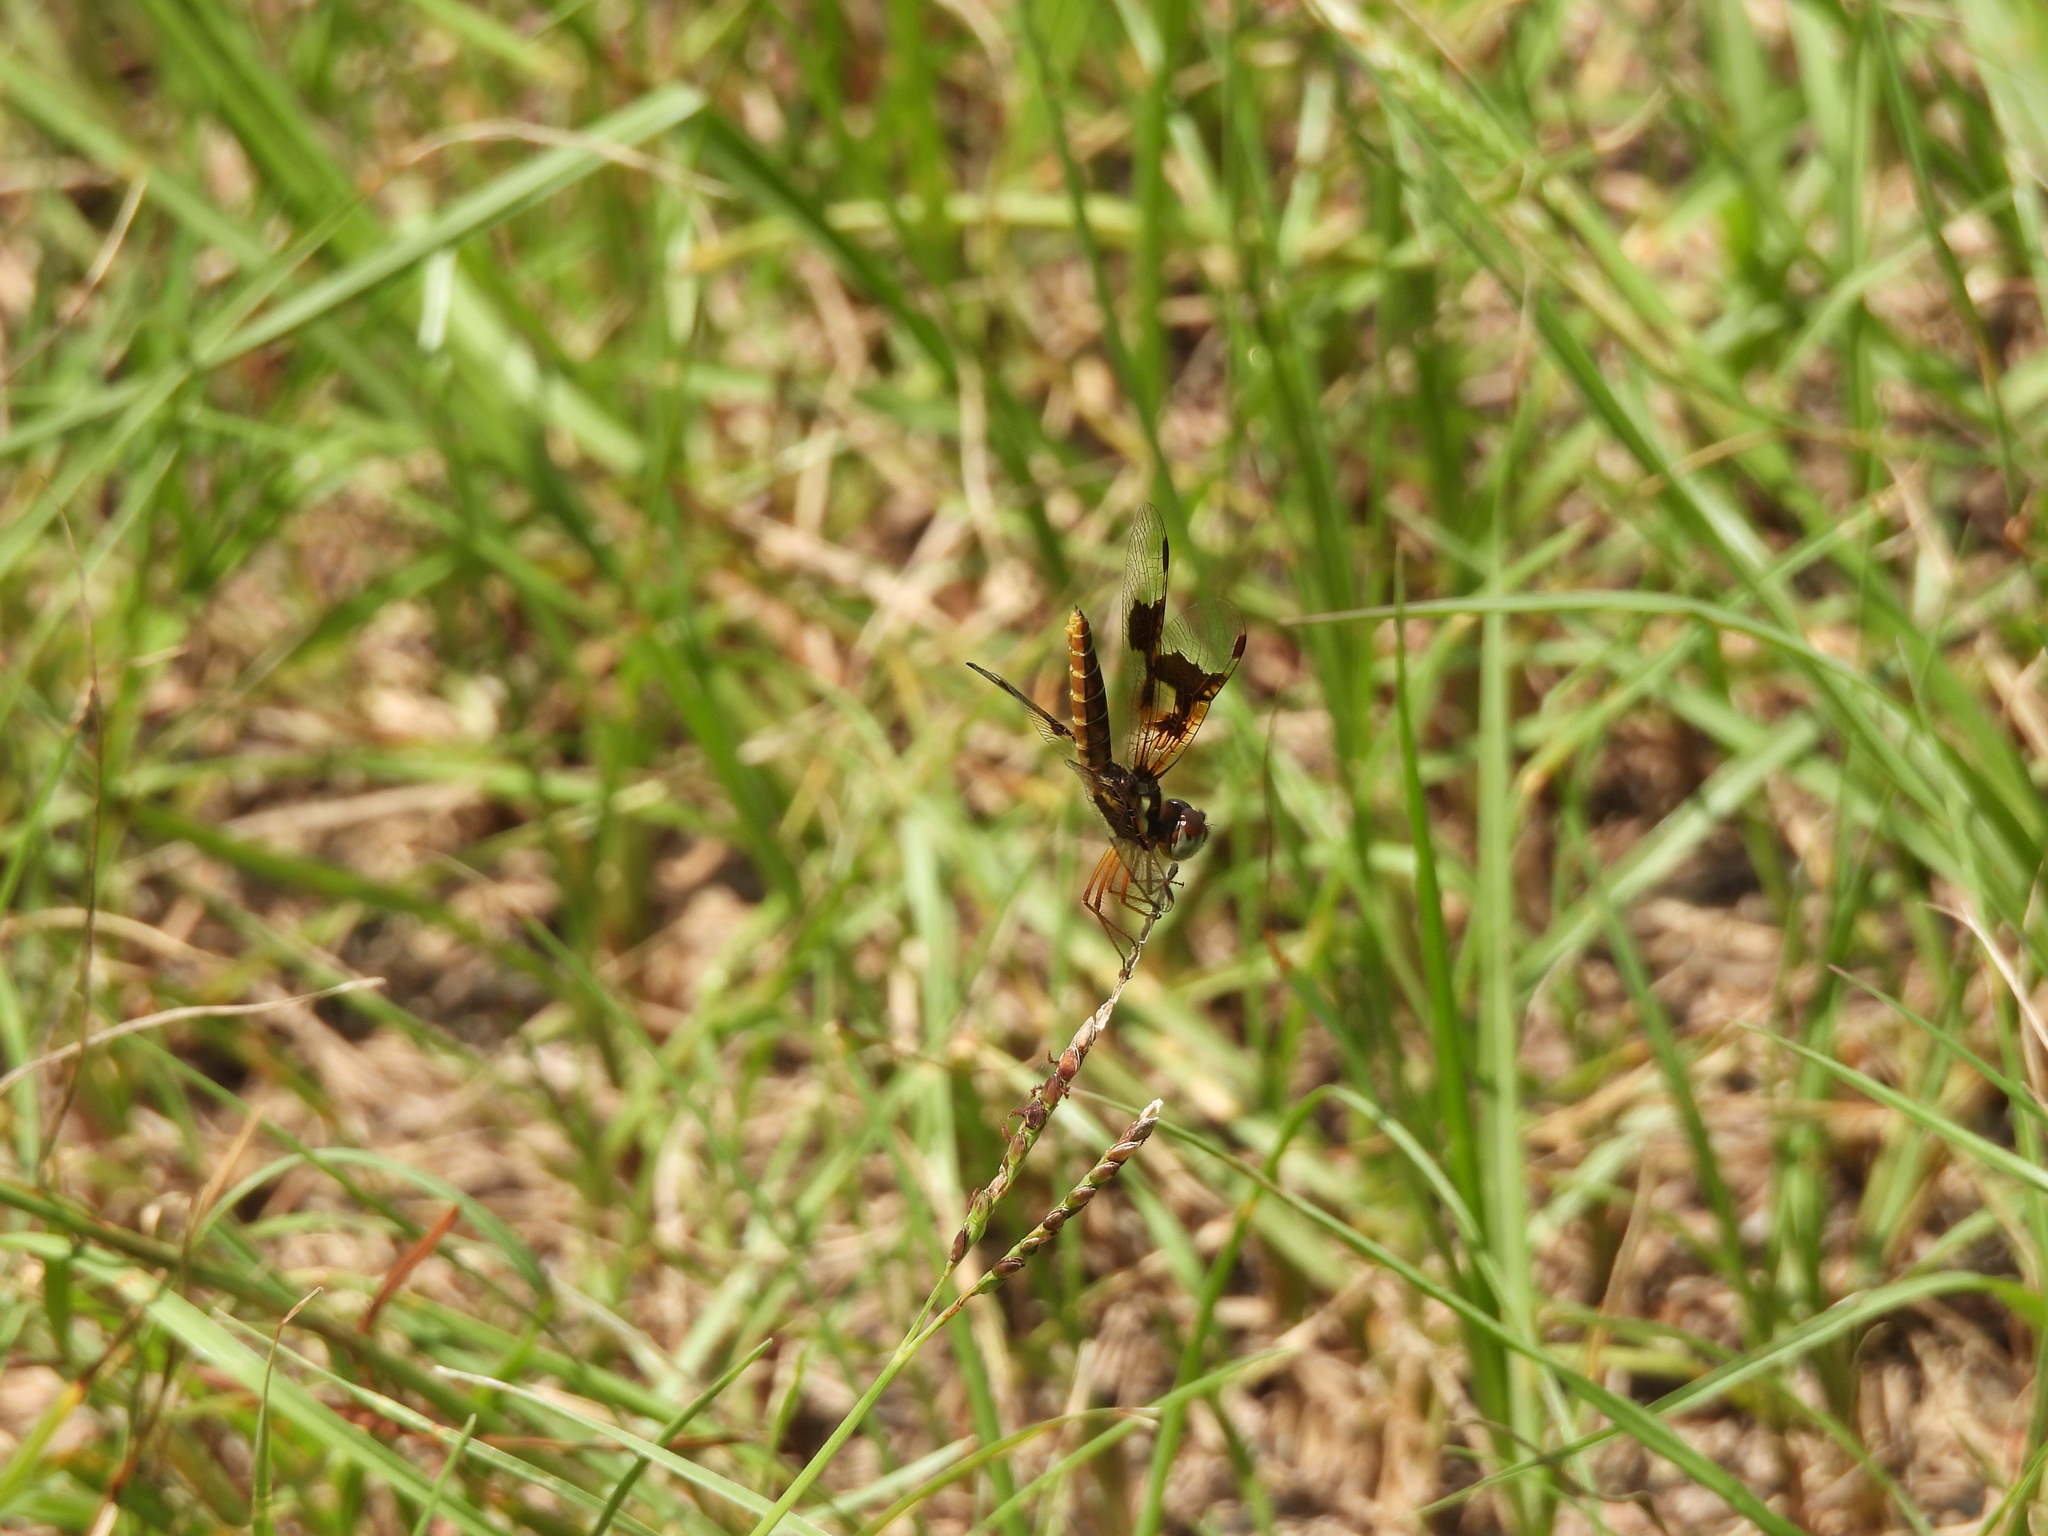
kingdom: Animalia
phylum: Arthropoda
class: Insecta
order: Odonata
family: Libellulidae
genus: Perithemis
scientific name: Perithemis tenera
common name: Eastern amberwing
